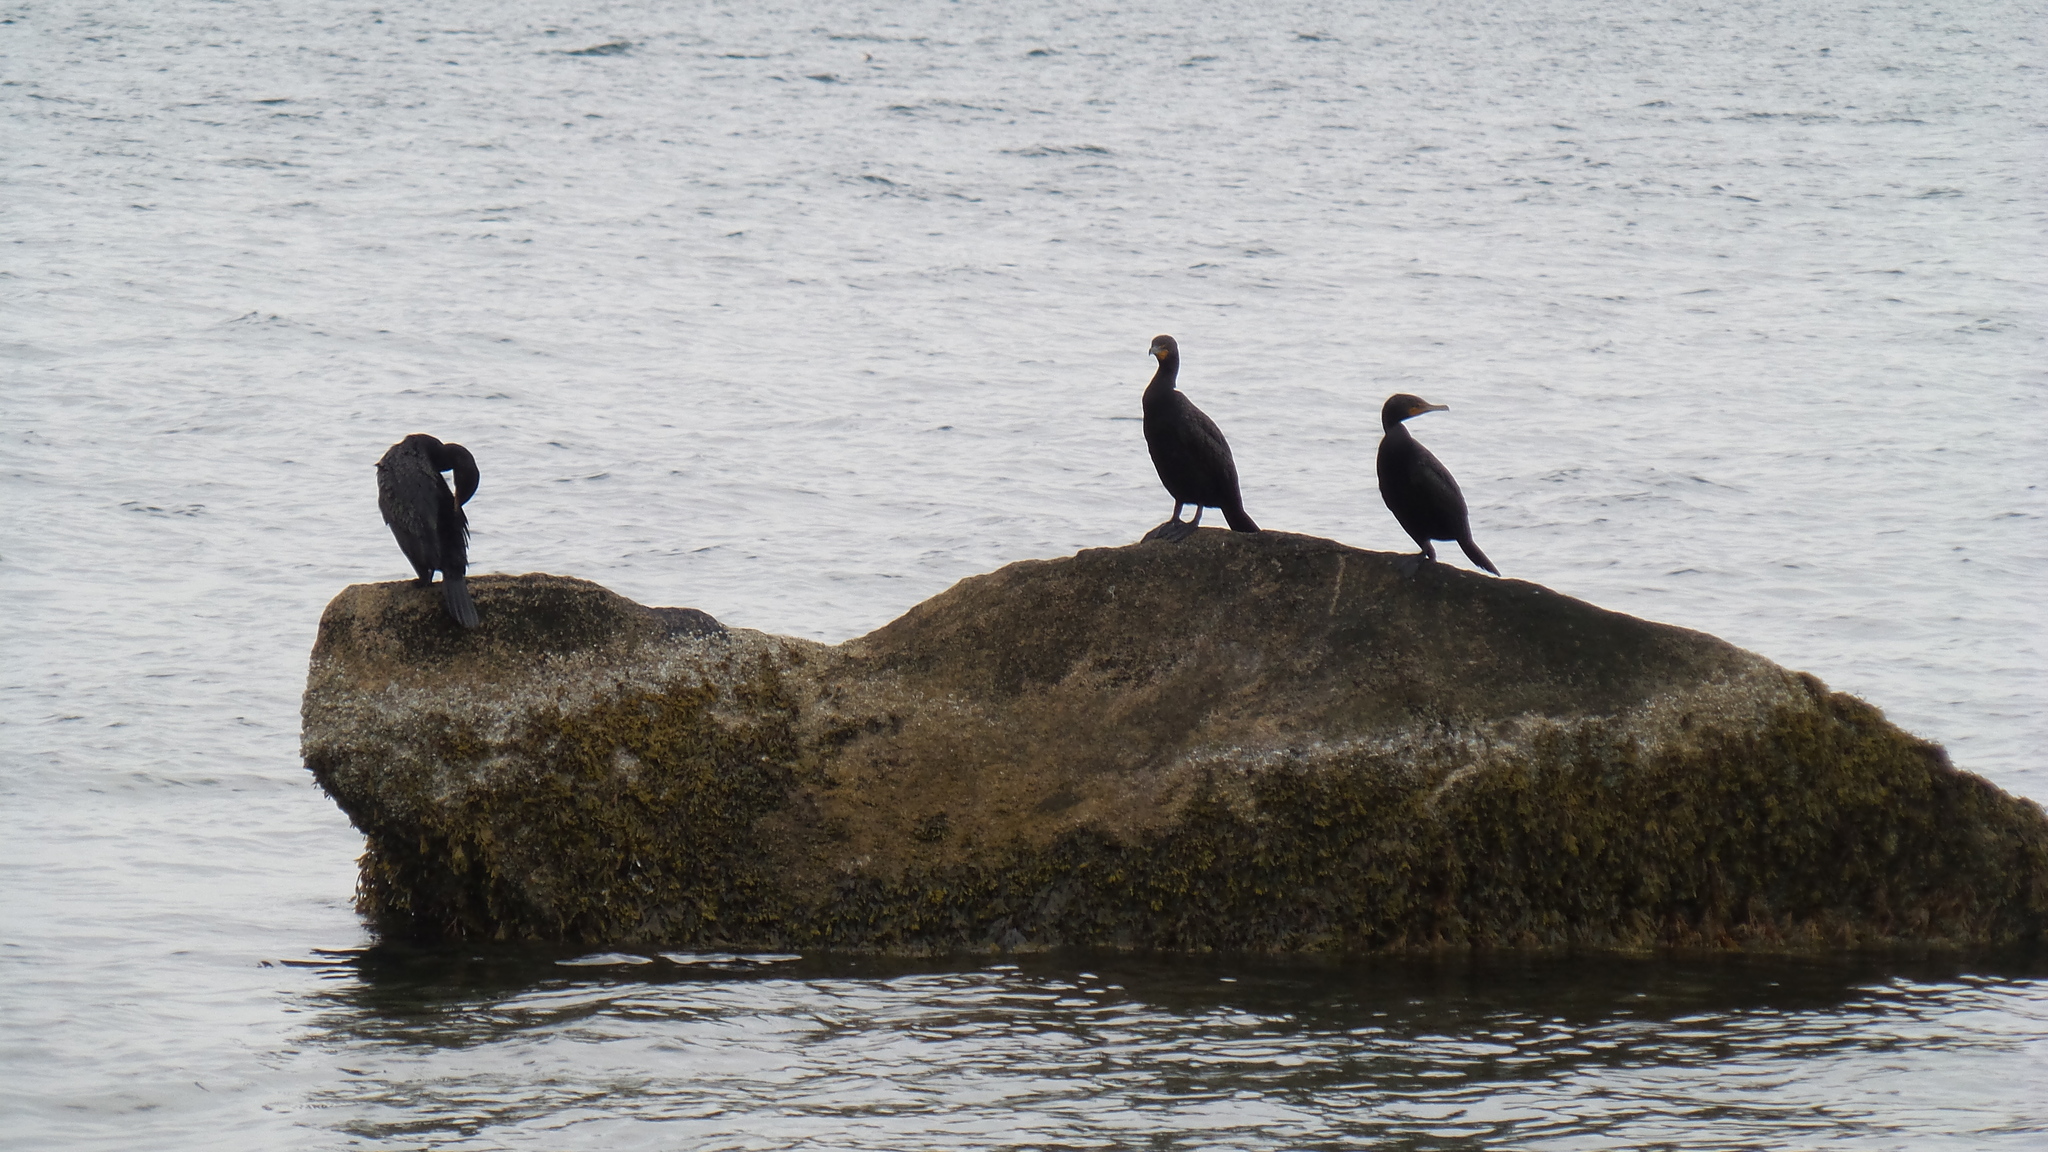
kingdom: Animalia
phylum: Chordata
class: Aves
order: Suliformes
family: Phalacrocoracidae
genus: Phalacrocorax
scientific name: Phalacrocorax auritus
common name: Double-crested cormorant
